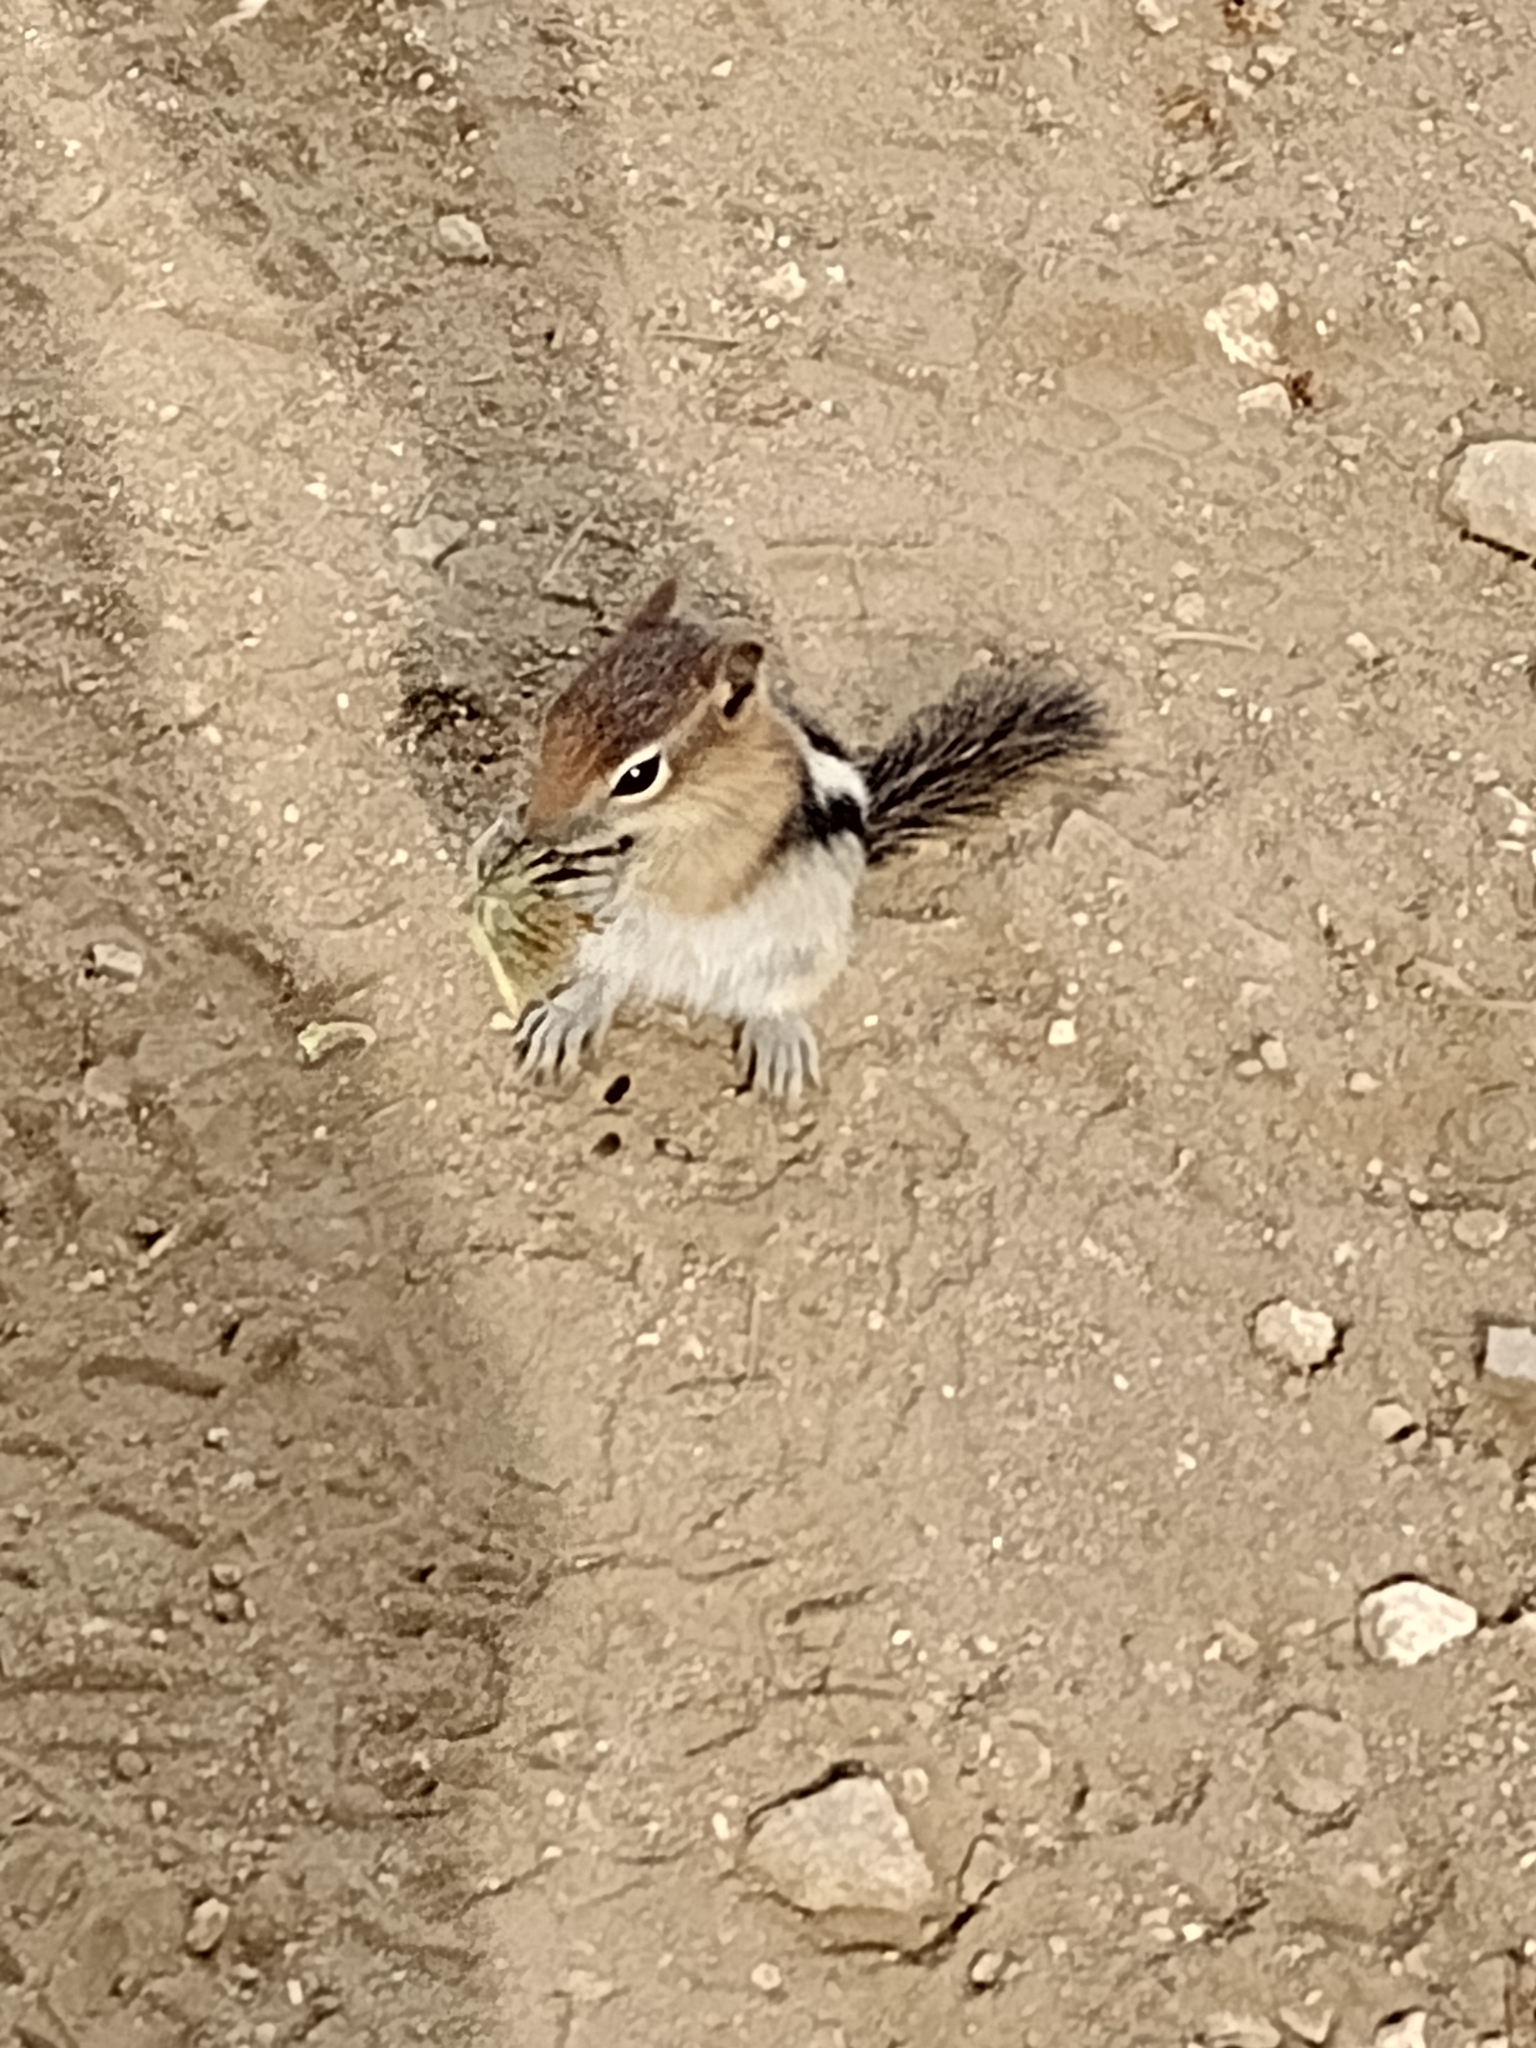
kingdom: Animalia
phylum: Chordata
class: Mammalia
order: Rodentia
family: Sciuridae
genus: Callospermophilus
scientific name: Callospermophilus lateralis
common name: Golden-mantled ground squirrel
